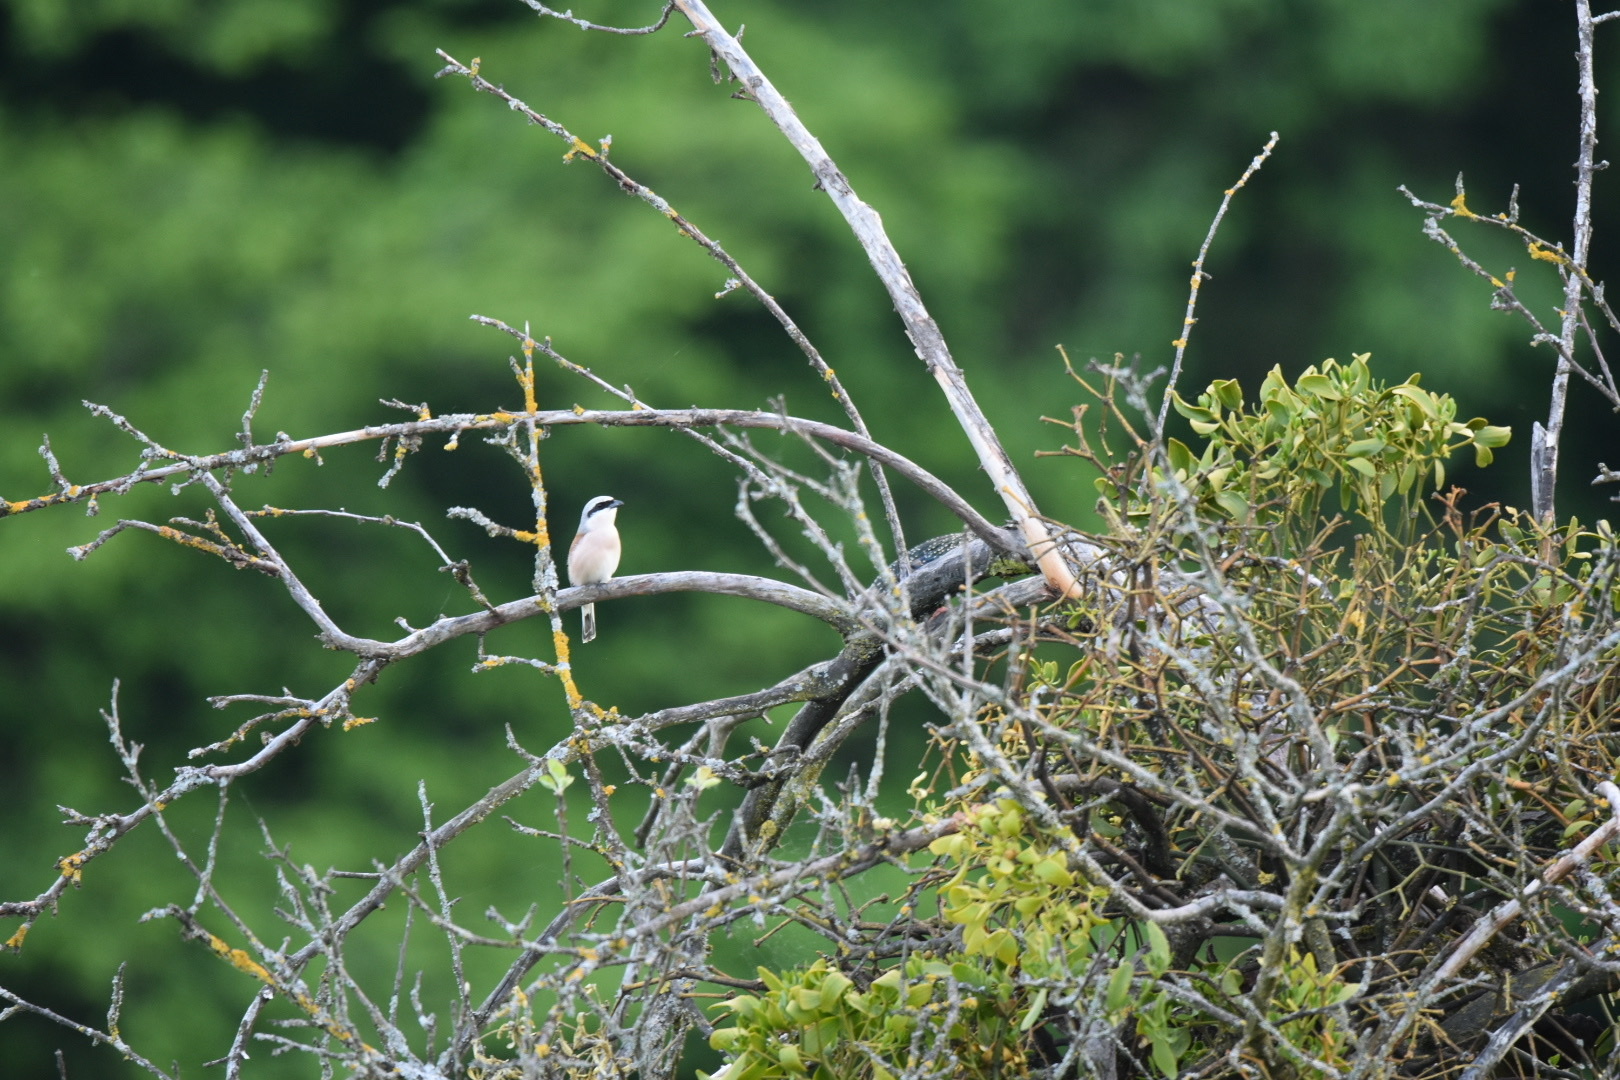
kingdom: Animalia
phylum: Chordata
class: Aves
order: Passeriformes
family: Laniidae
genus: Lanius
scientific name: Lanius collurio
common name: Red-backed shrike
